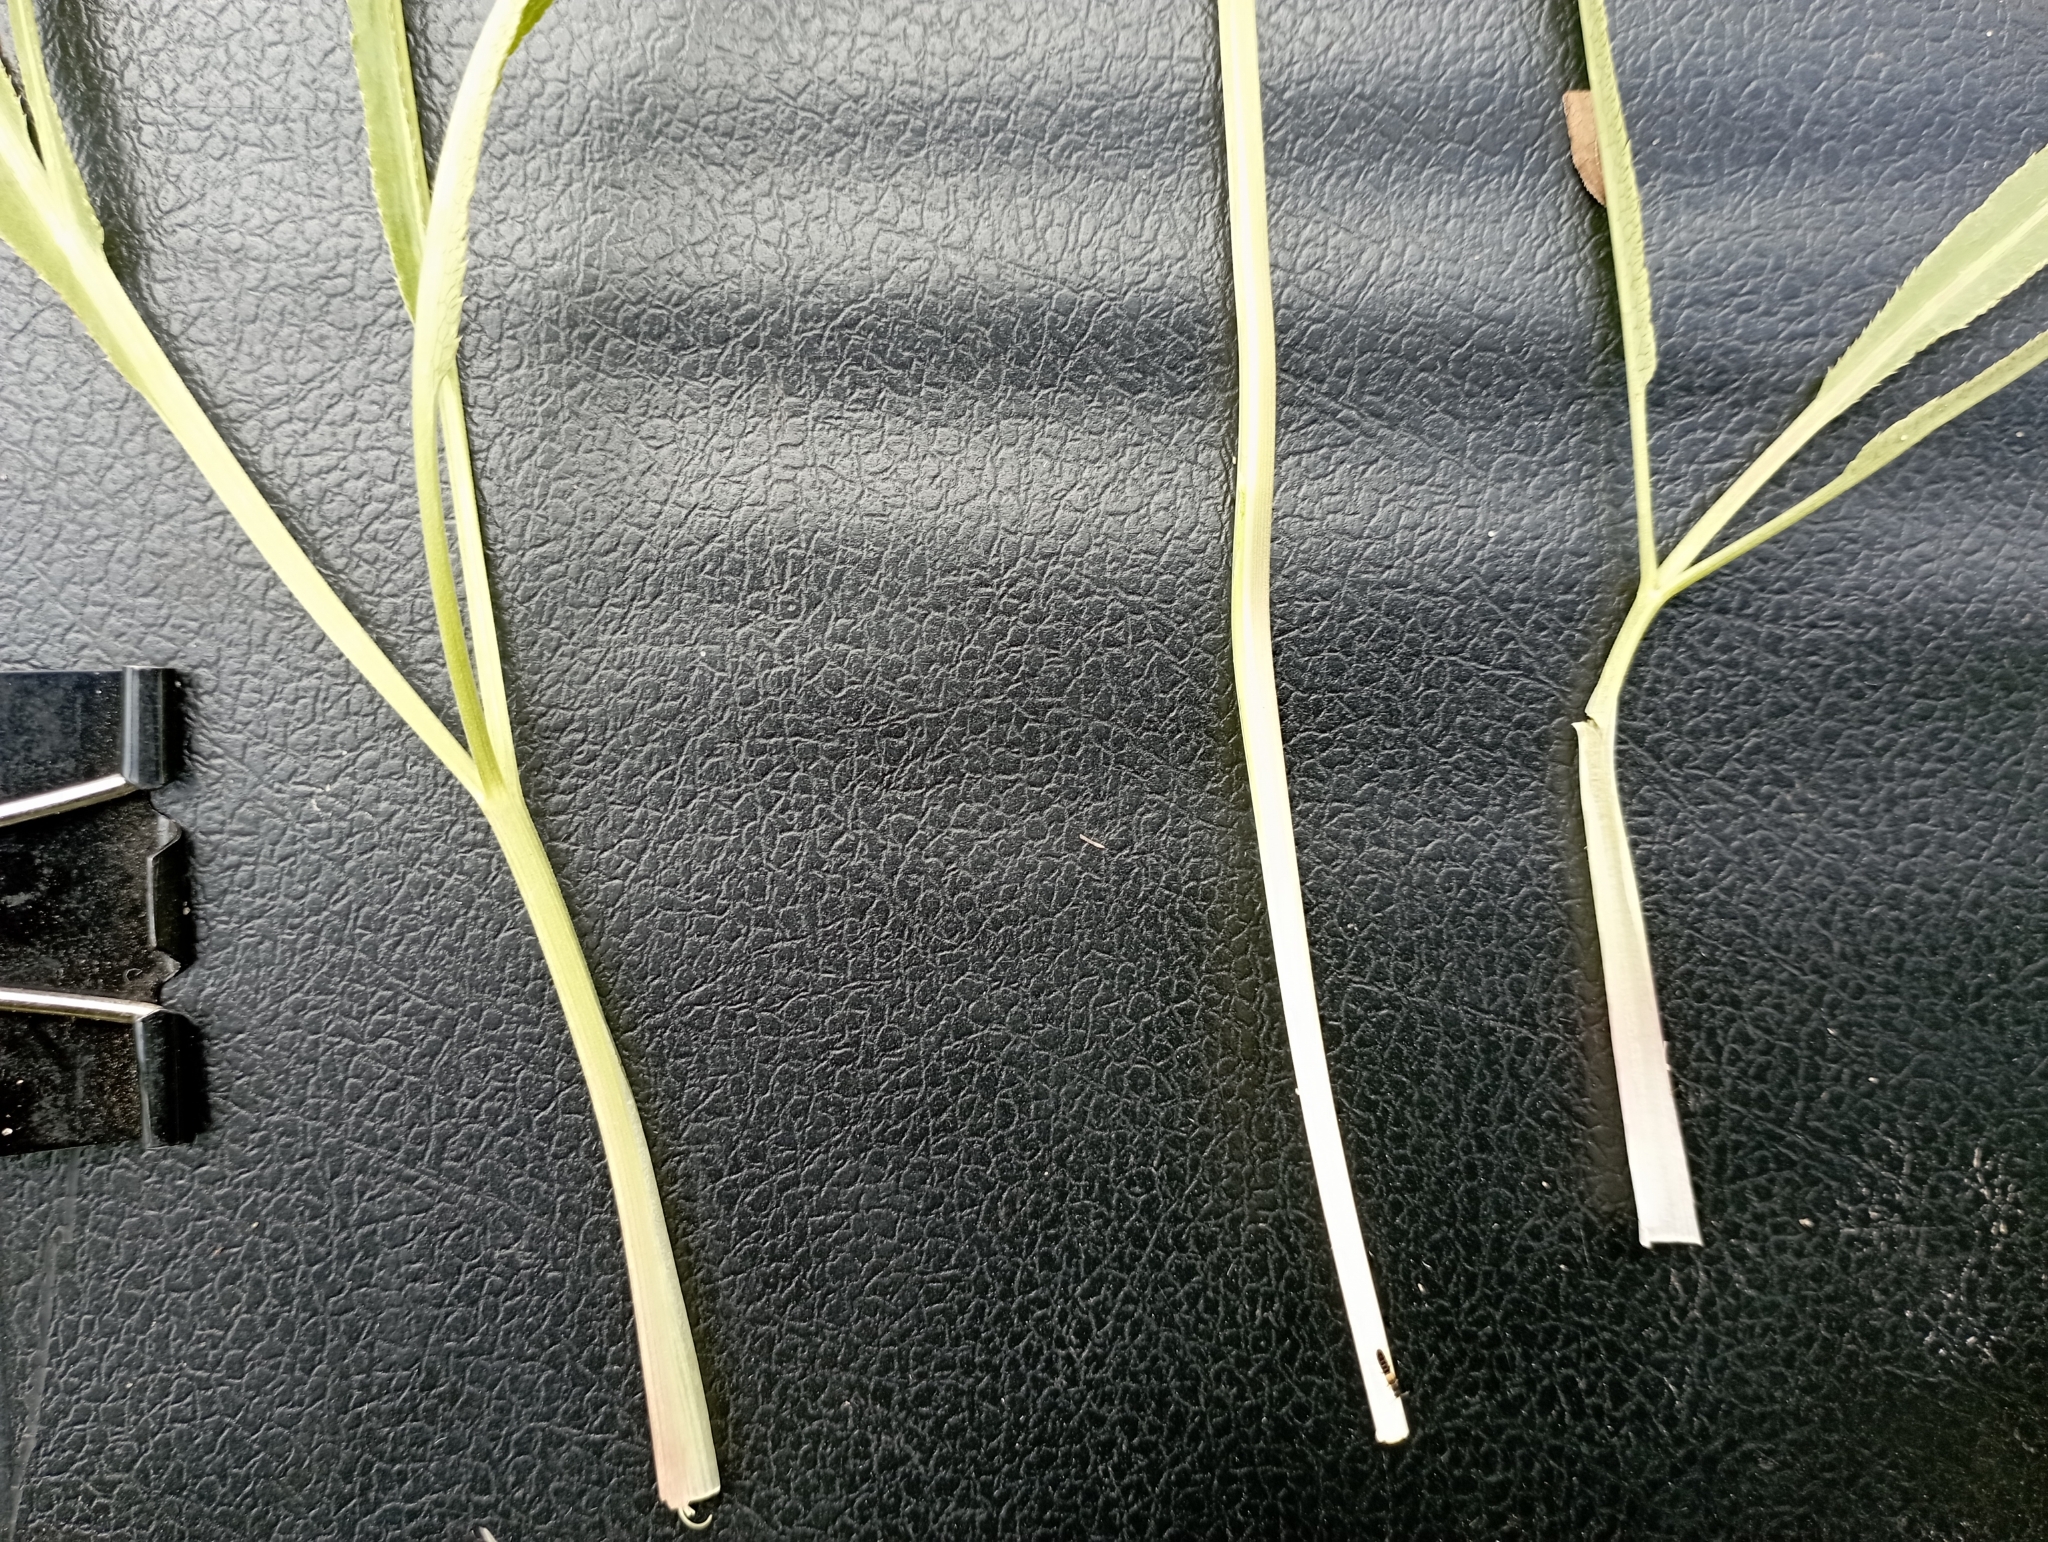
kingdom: Plantae
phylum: Tracheophyta
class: Magnoliopsida
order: Apiales
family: Apiaceae
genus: Falcaria
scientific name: Falcaria vulgaris
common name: Longleaf
